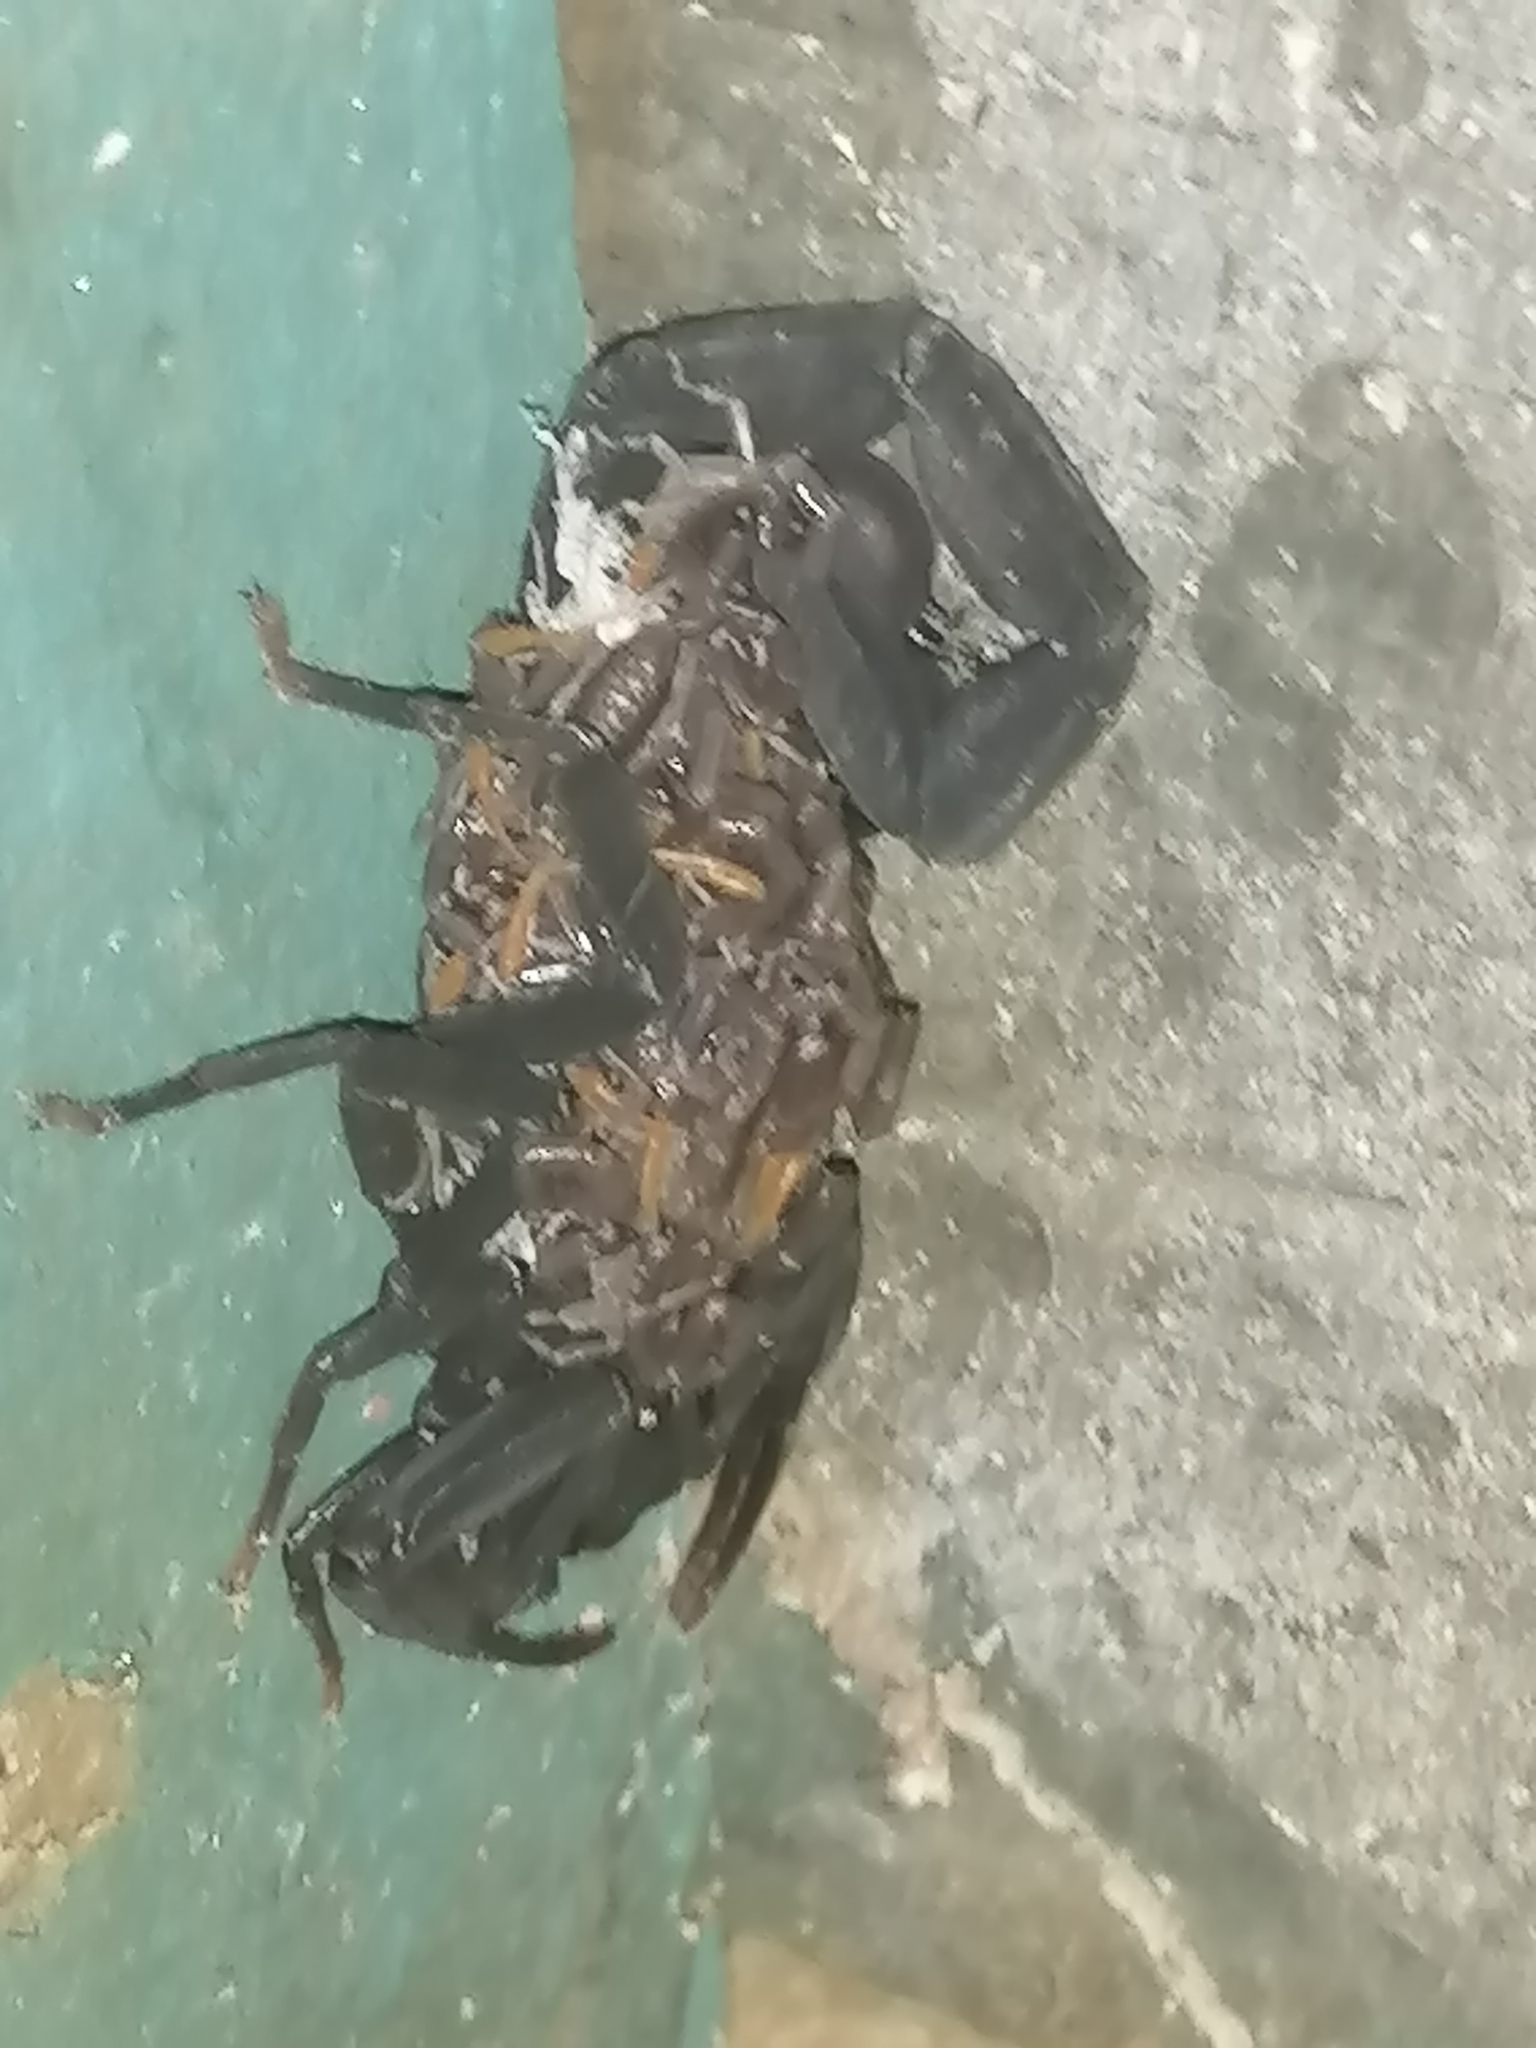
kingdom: Animalia
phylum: Arthropoda
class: Arachnida
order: Scorpiones
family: Buthidae
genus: Centruroides
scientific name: Centruroides gracilis
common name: Scorpions
